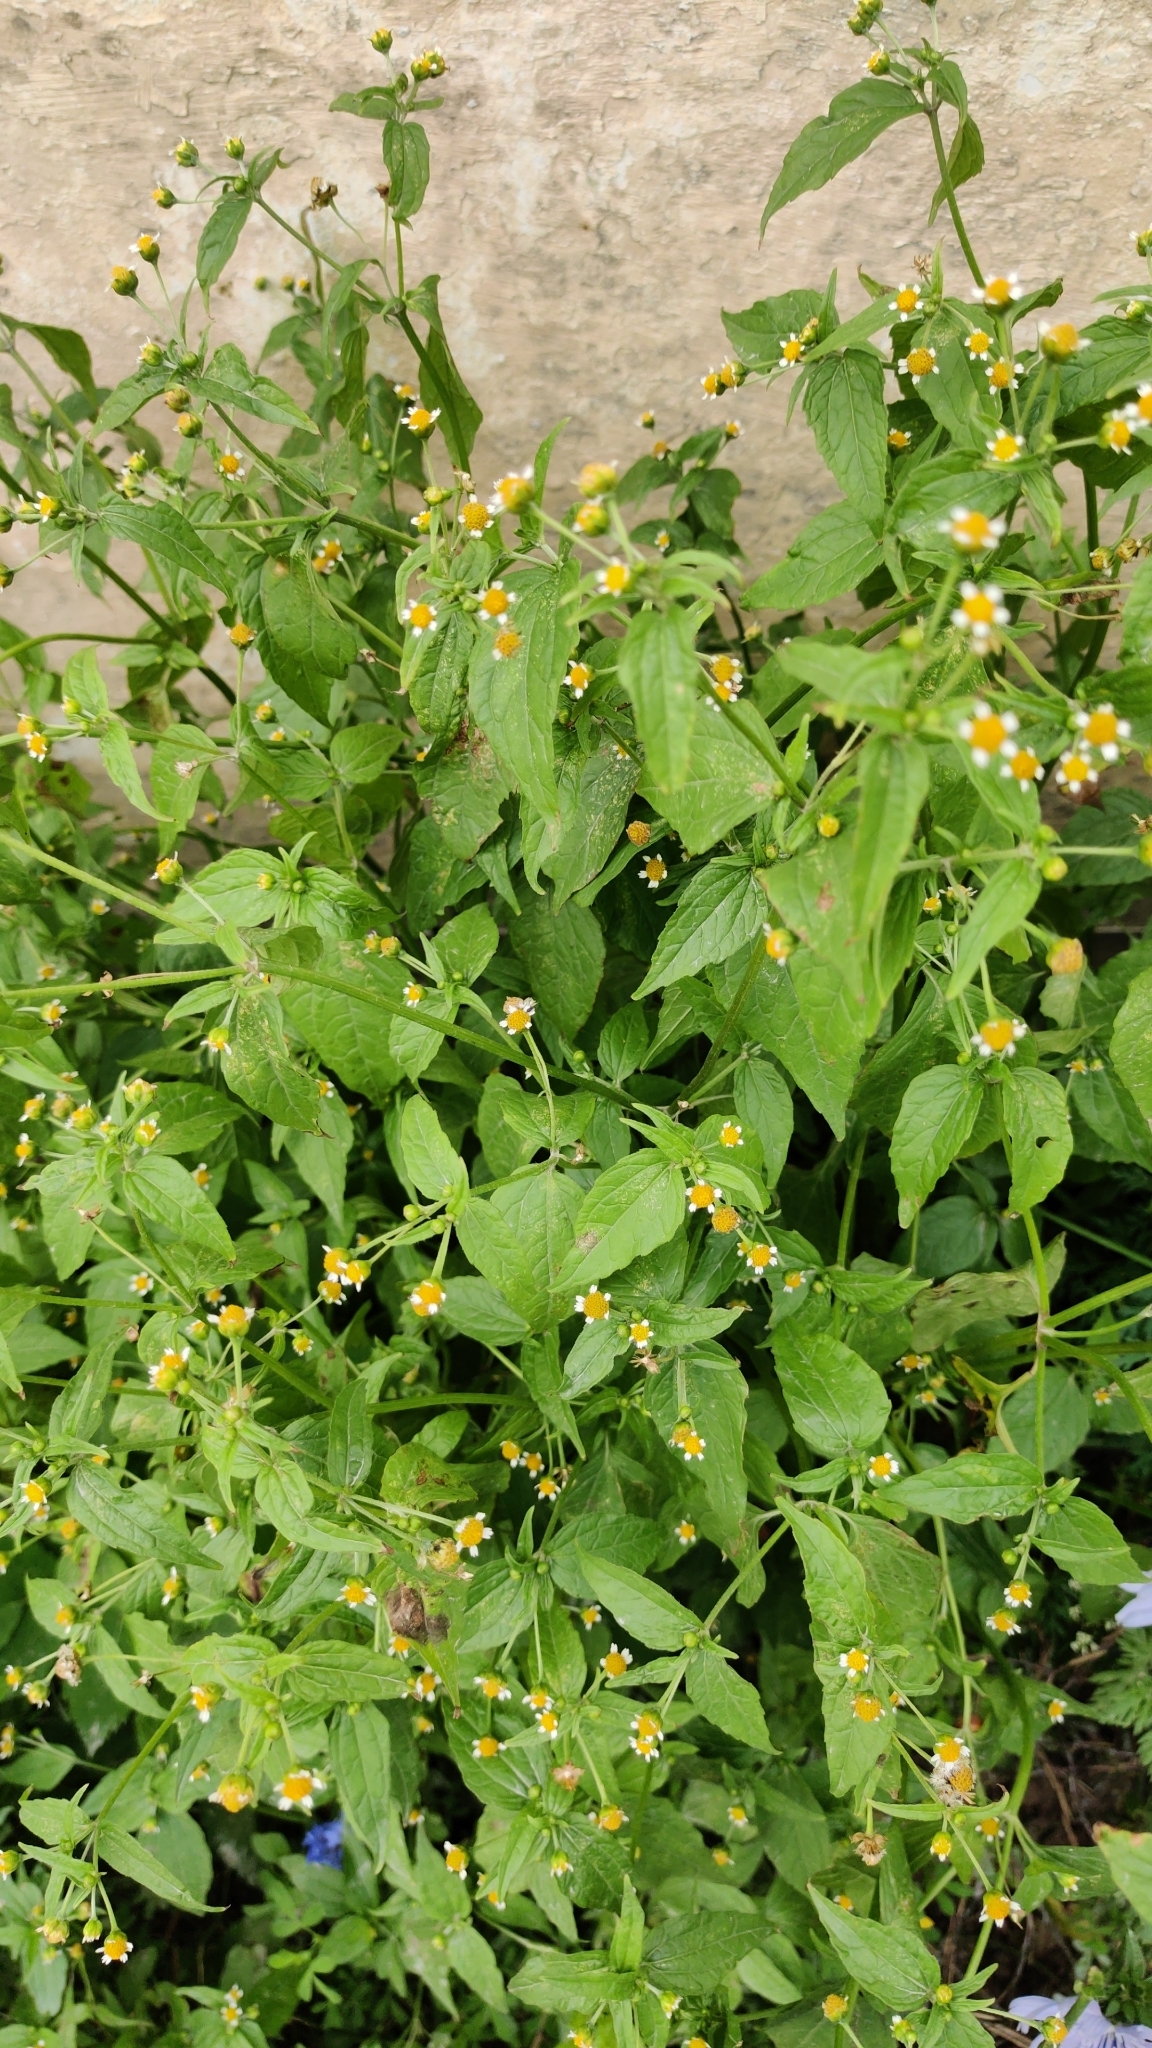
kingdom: Plantae
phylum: Tracheophyta
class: Magnoliopsida
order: Asterales
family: Asteraceae
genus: Galinsoga
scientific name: Galinsoga parviflora
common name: Gallant soldier
